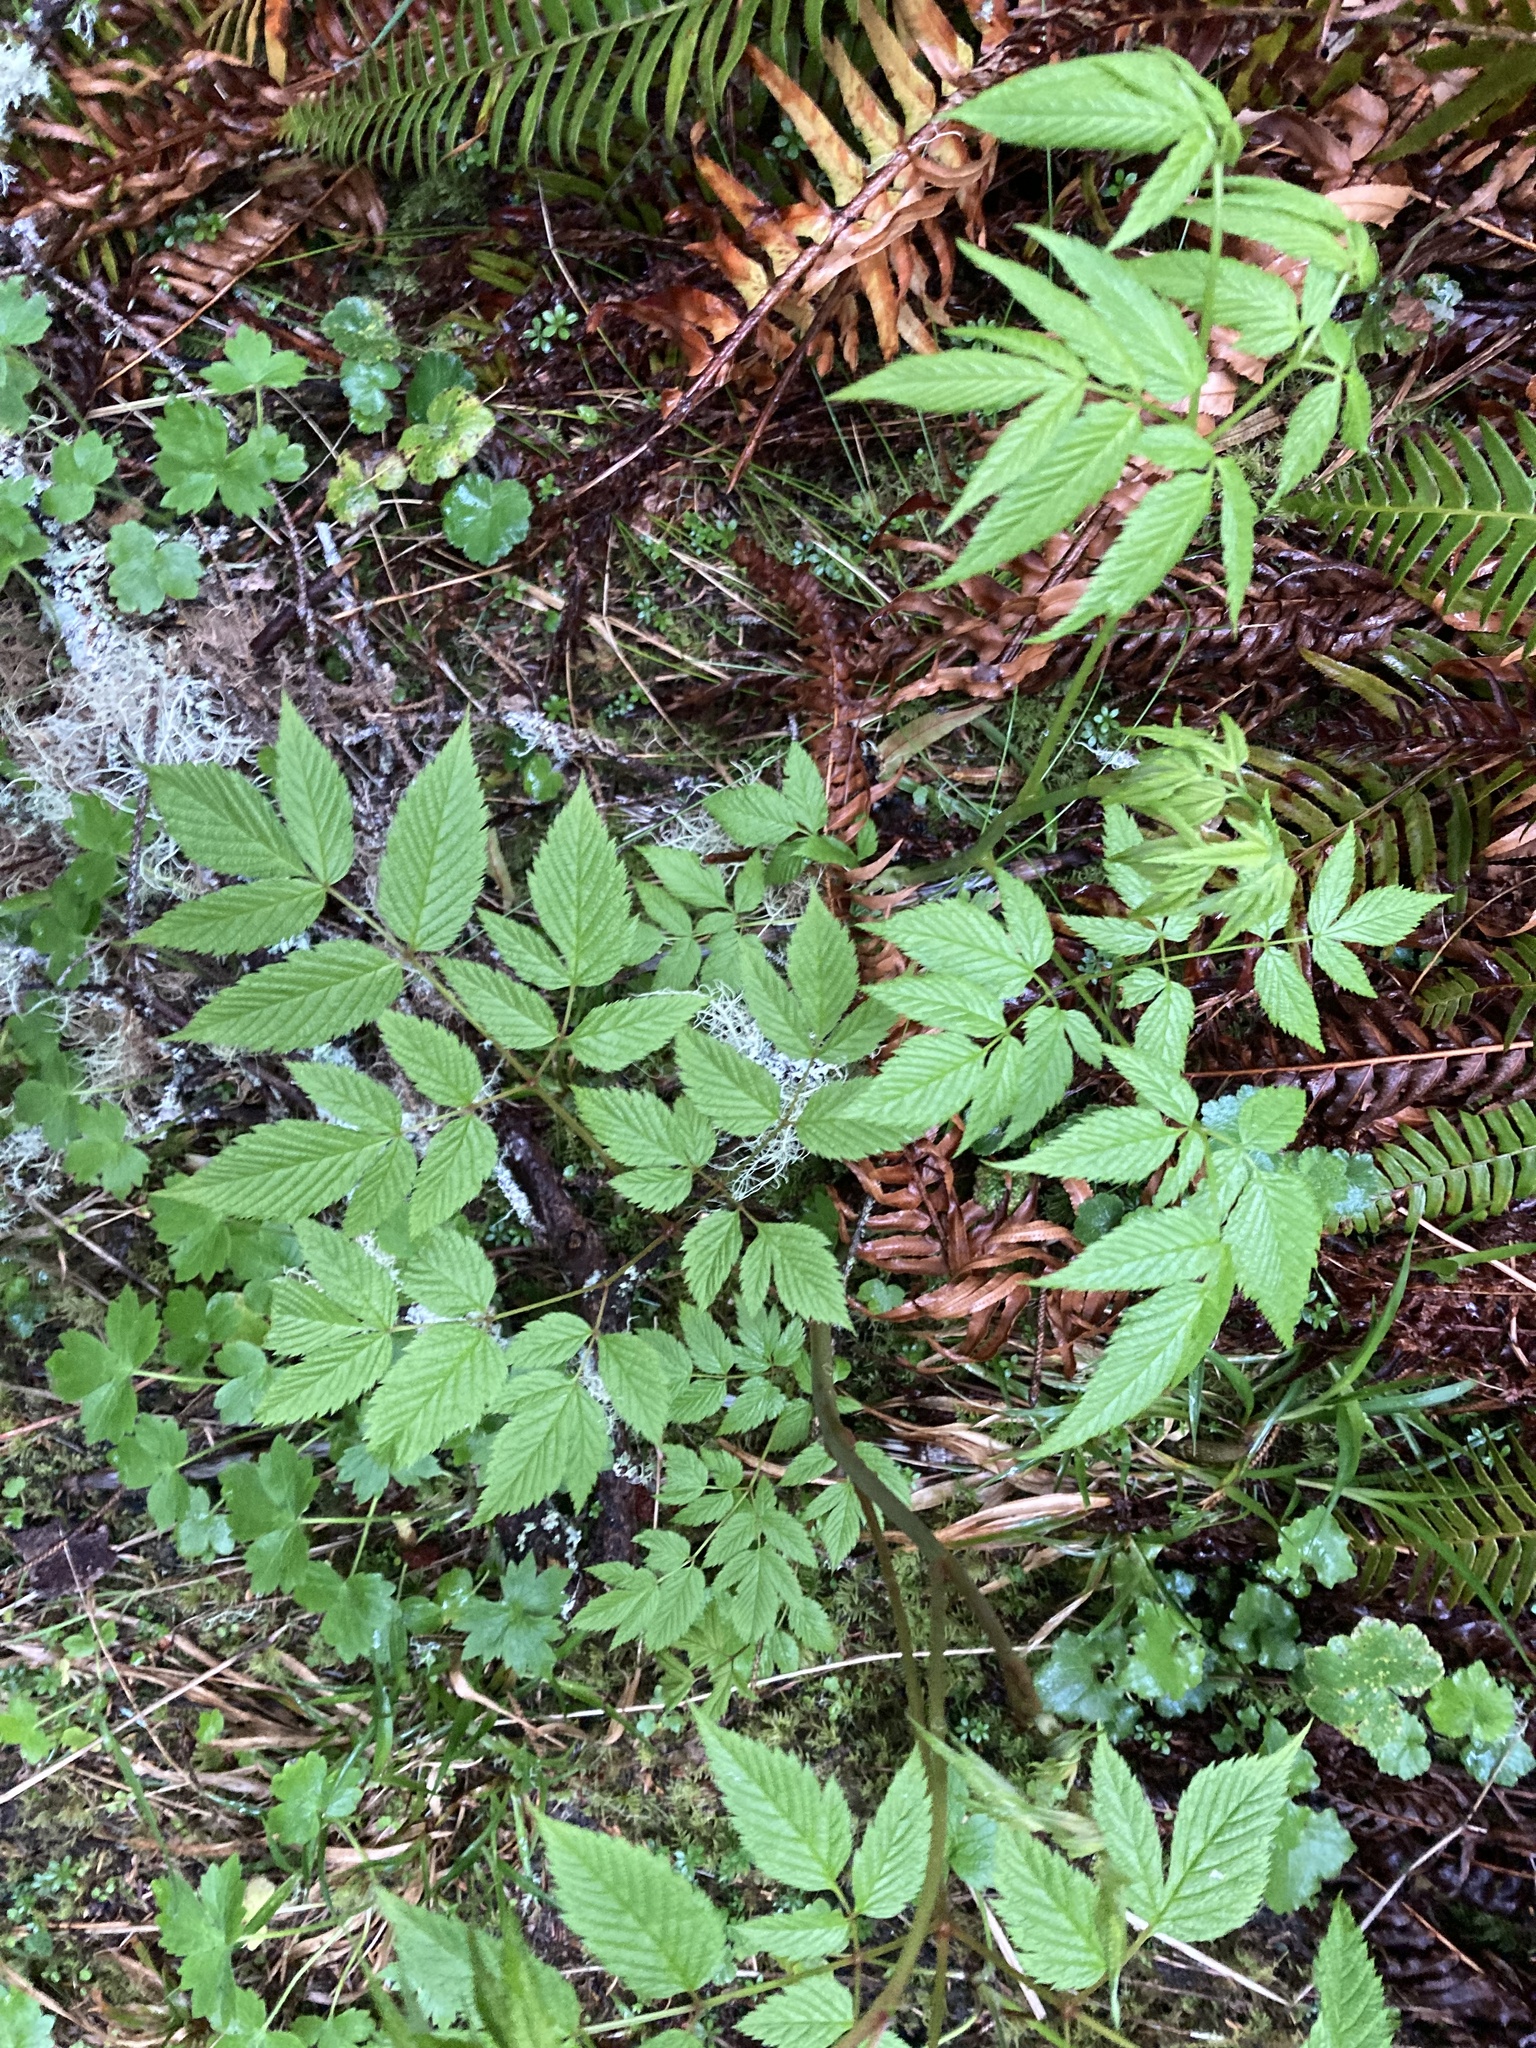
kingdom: Plantae
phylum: Tracheophyta
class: Magnoliopsida
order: Rosales
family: Rosaceae
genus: Aruncus
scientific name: Aruncus dioicus
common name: Buck's-beard
